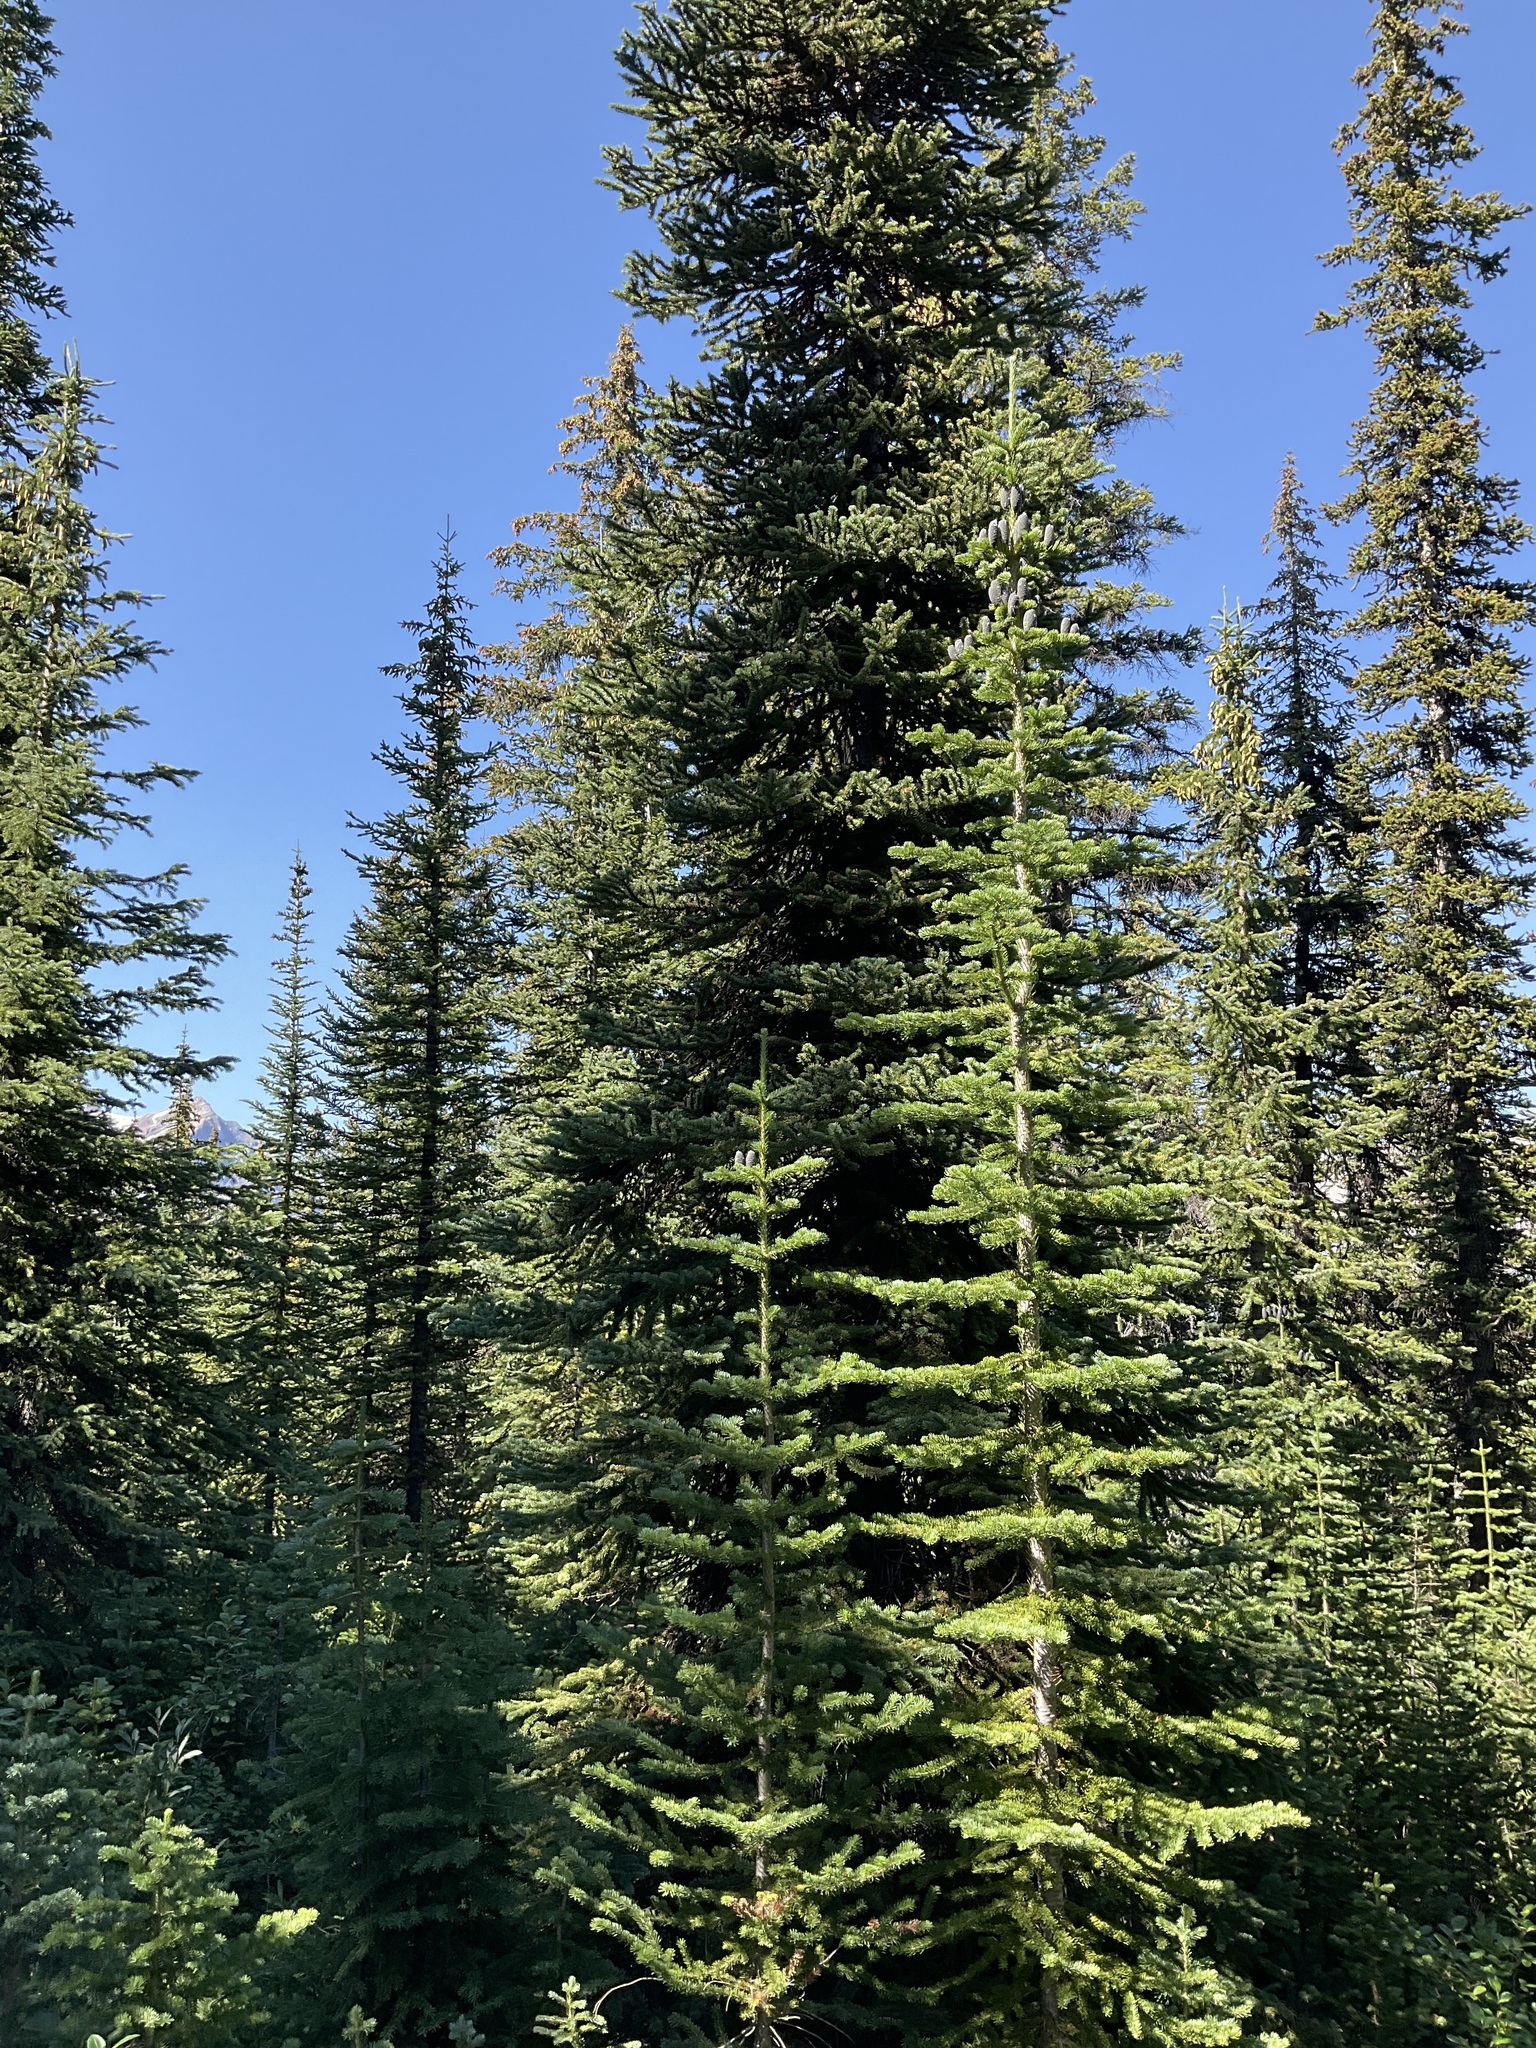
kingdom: Plantae
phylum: Tracheophyta
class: Pinopsida
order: Pinales
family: Pinaceae
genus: Abies
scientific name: Abies lasiocarpa
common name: Subalpine fir
